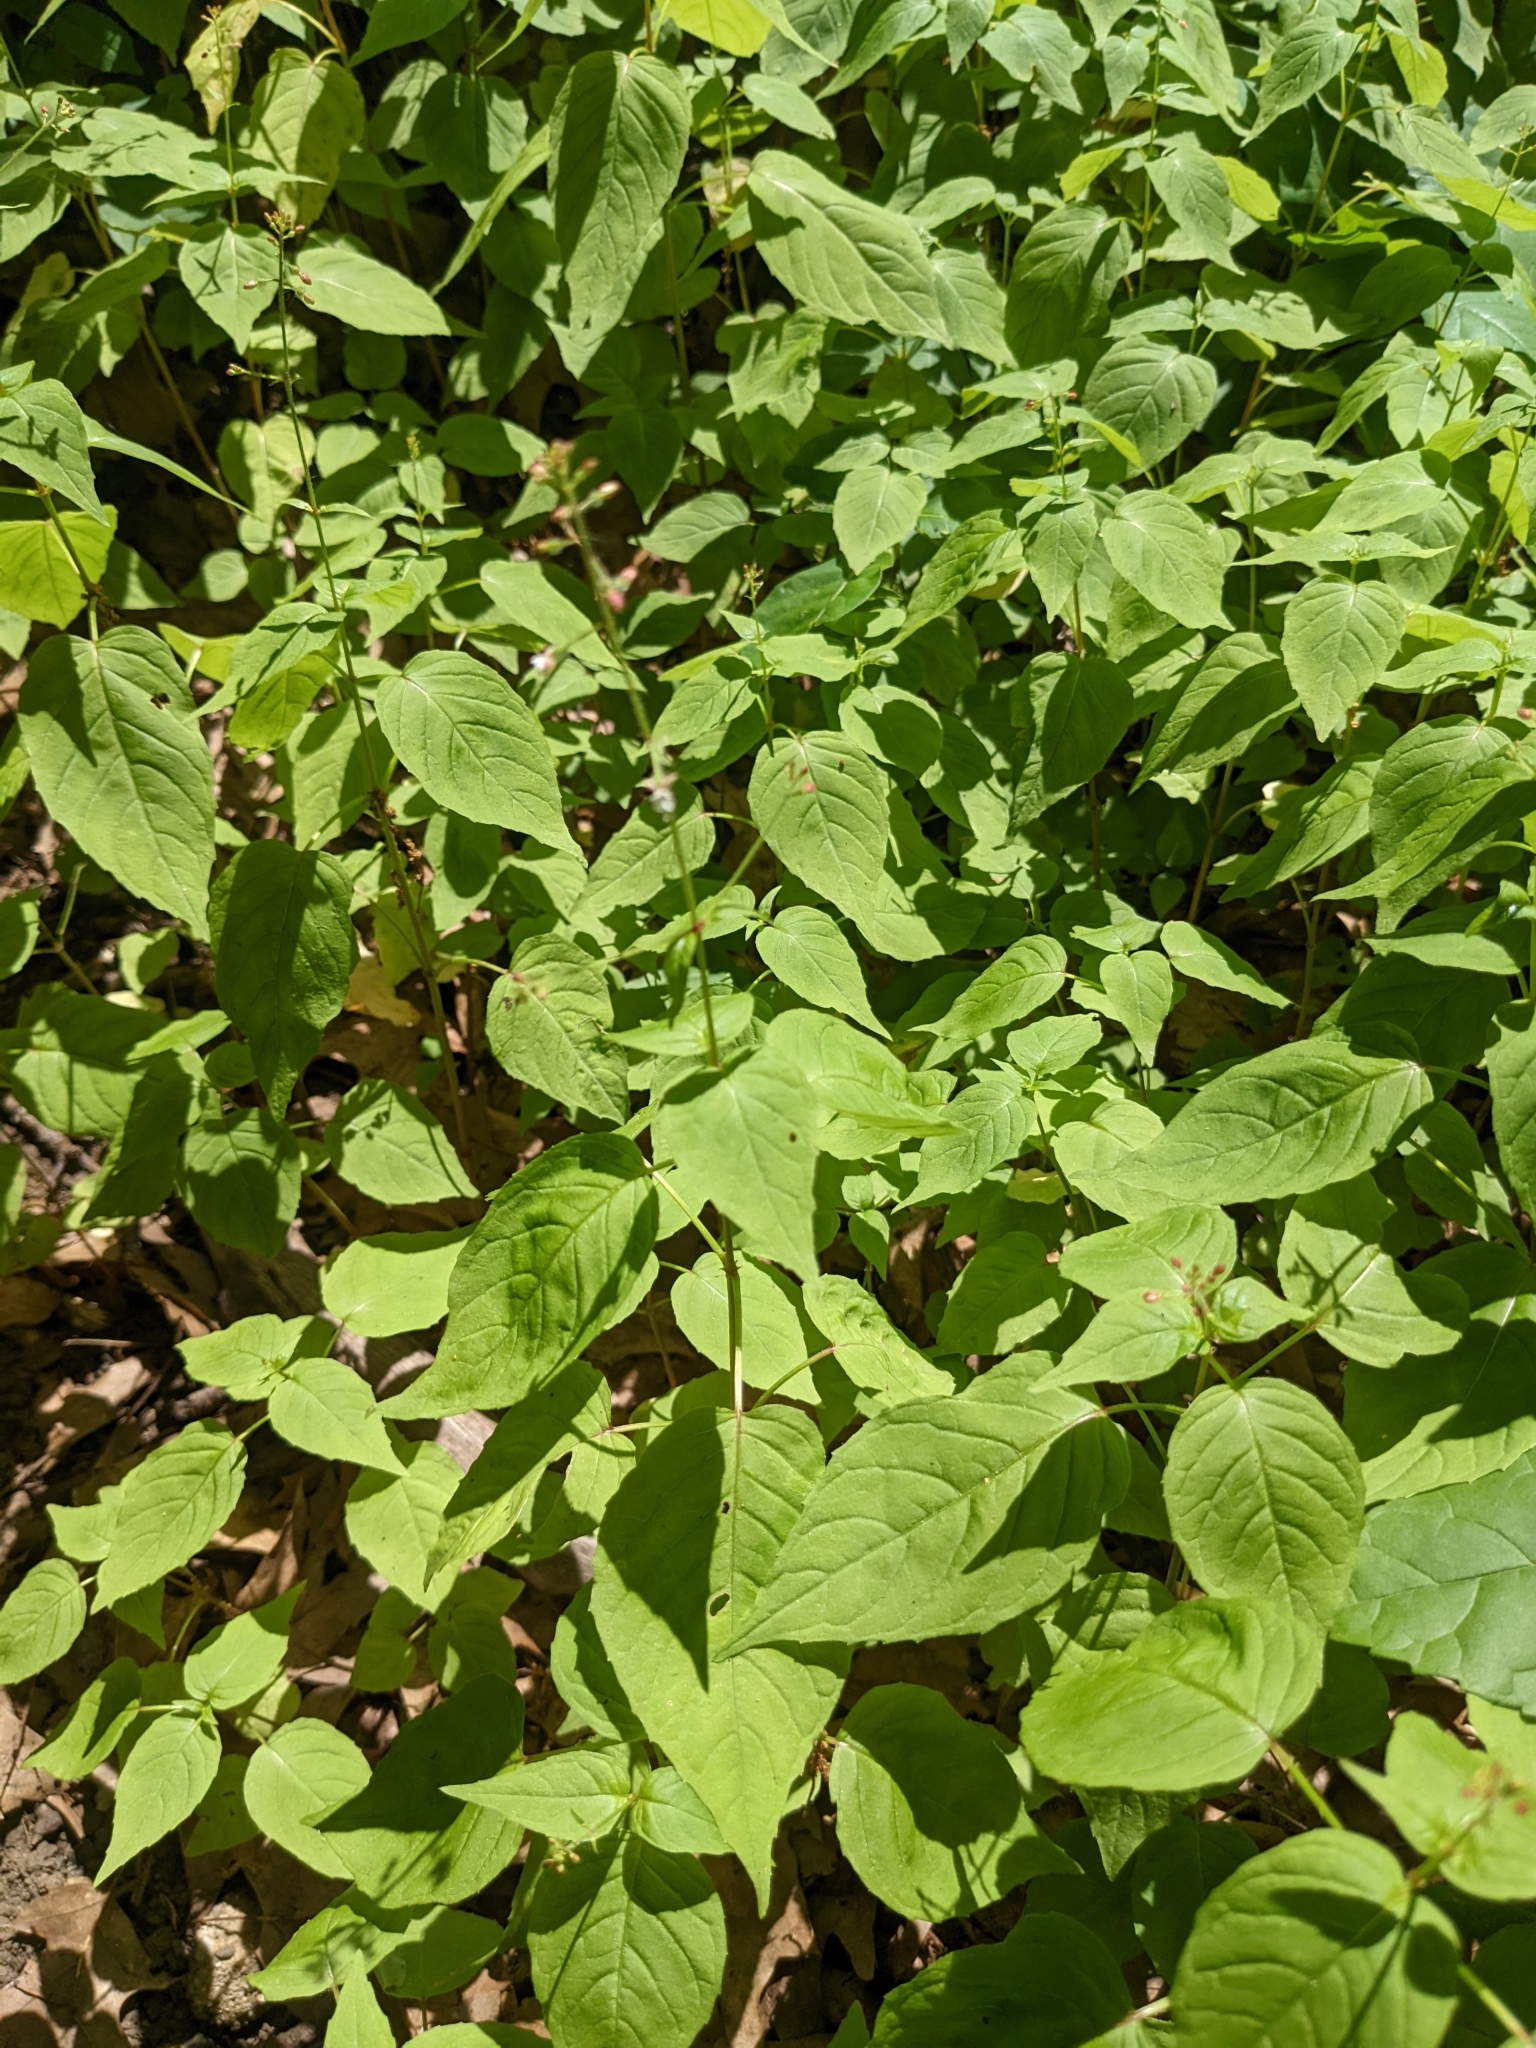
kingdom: Plantae
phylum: Tracheophyta
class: Magnoliopsida
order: Myrtales
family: Onagraceae
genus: Circaea
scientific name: Circaea canadensis
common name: Broad-leaved enchanter's nightshade
